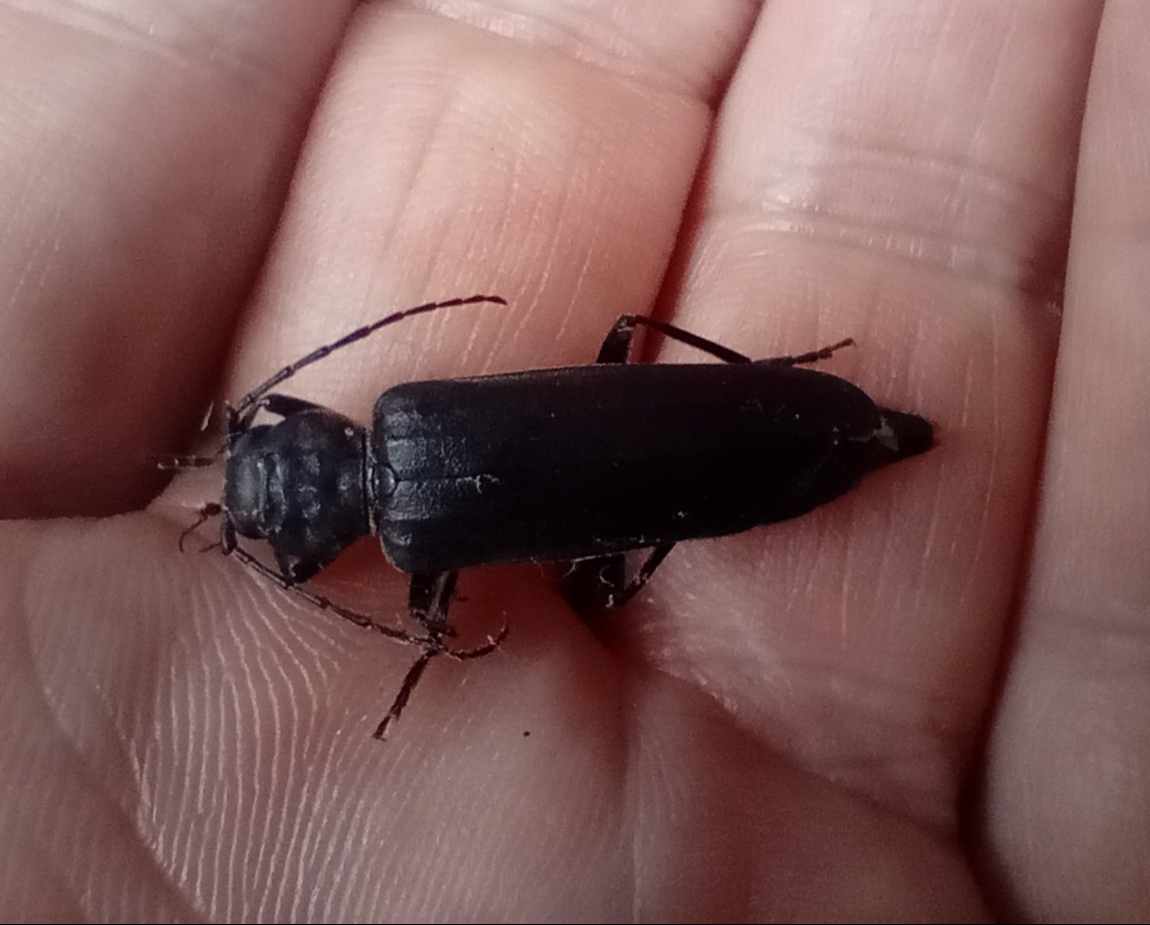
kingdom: Animalia
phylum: Arthropoda
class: Insecta
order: Coleoptera
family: Cerambycidae
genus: Arhopalus
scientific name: Arhopalus ferus
